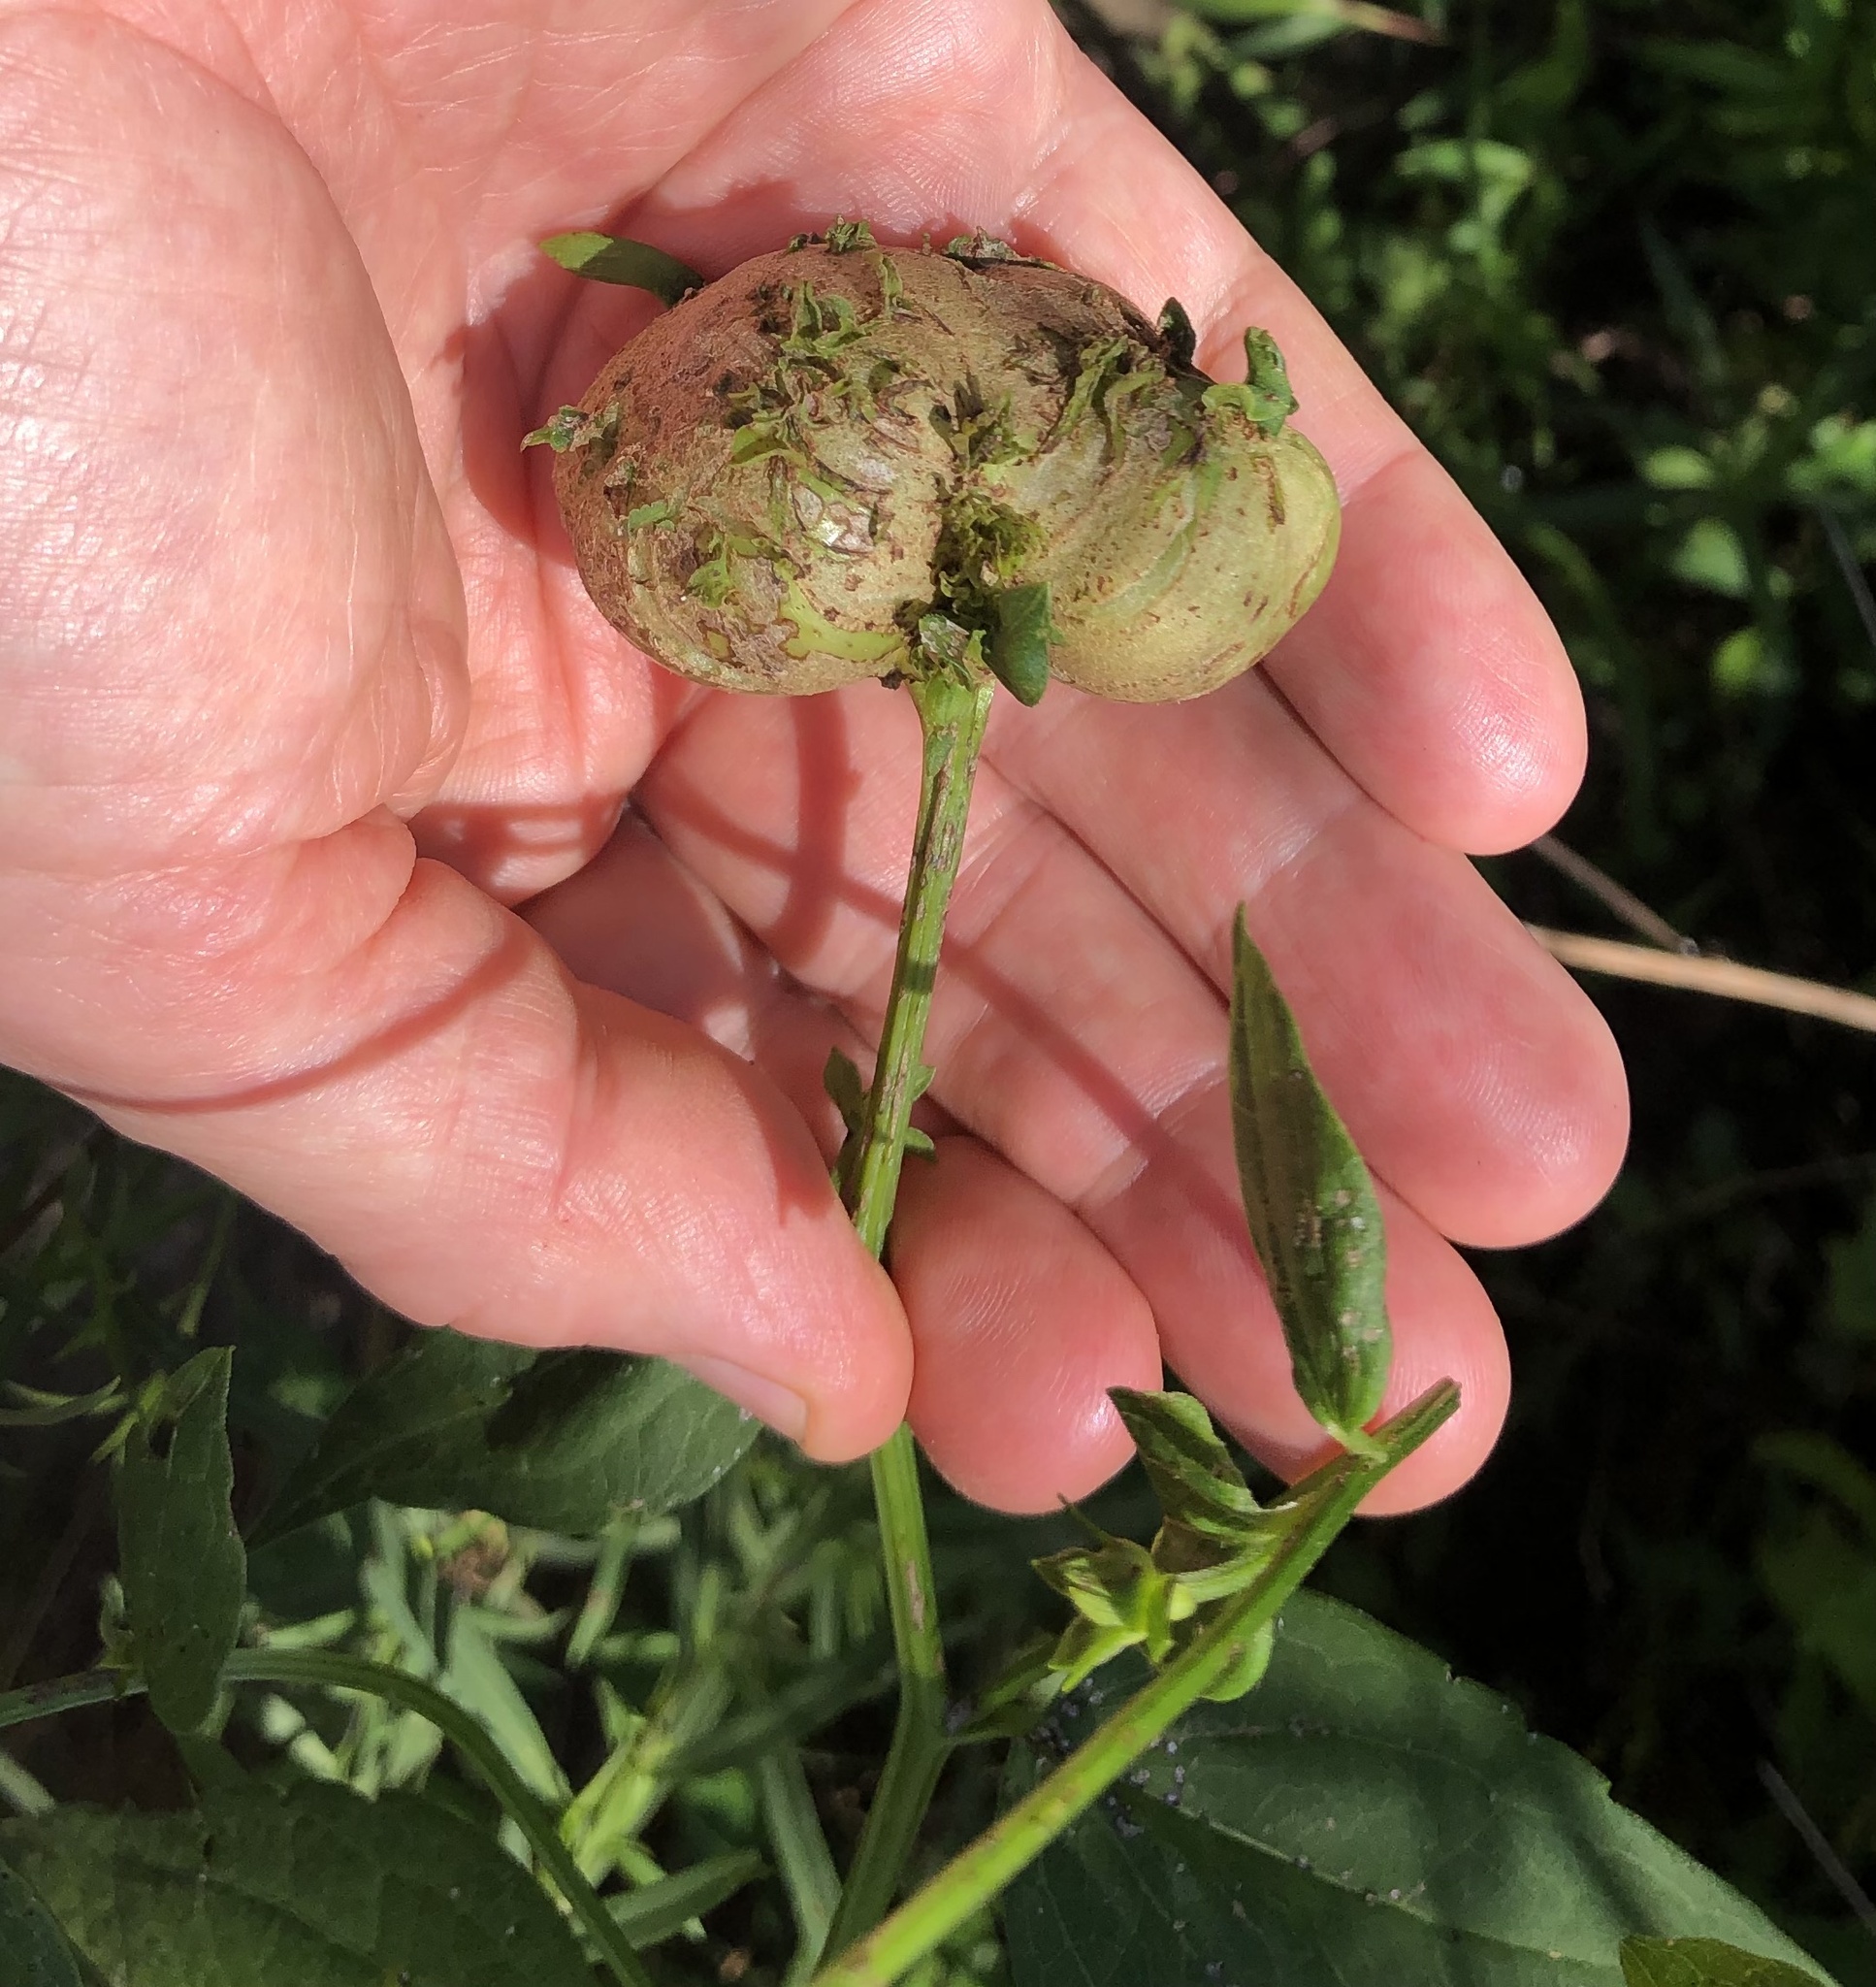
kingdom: Animalia
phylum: Arthropoda
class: Insecta
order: Diptera
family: Cecidomyiidae
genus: Asphondylia
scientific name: Asphondylia rudbeckiaeconspicua
